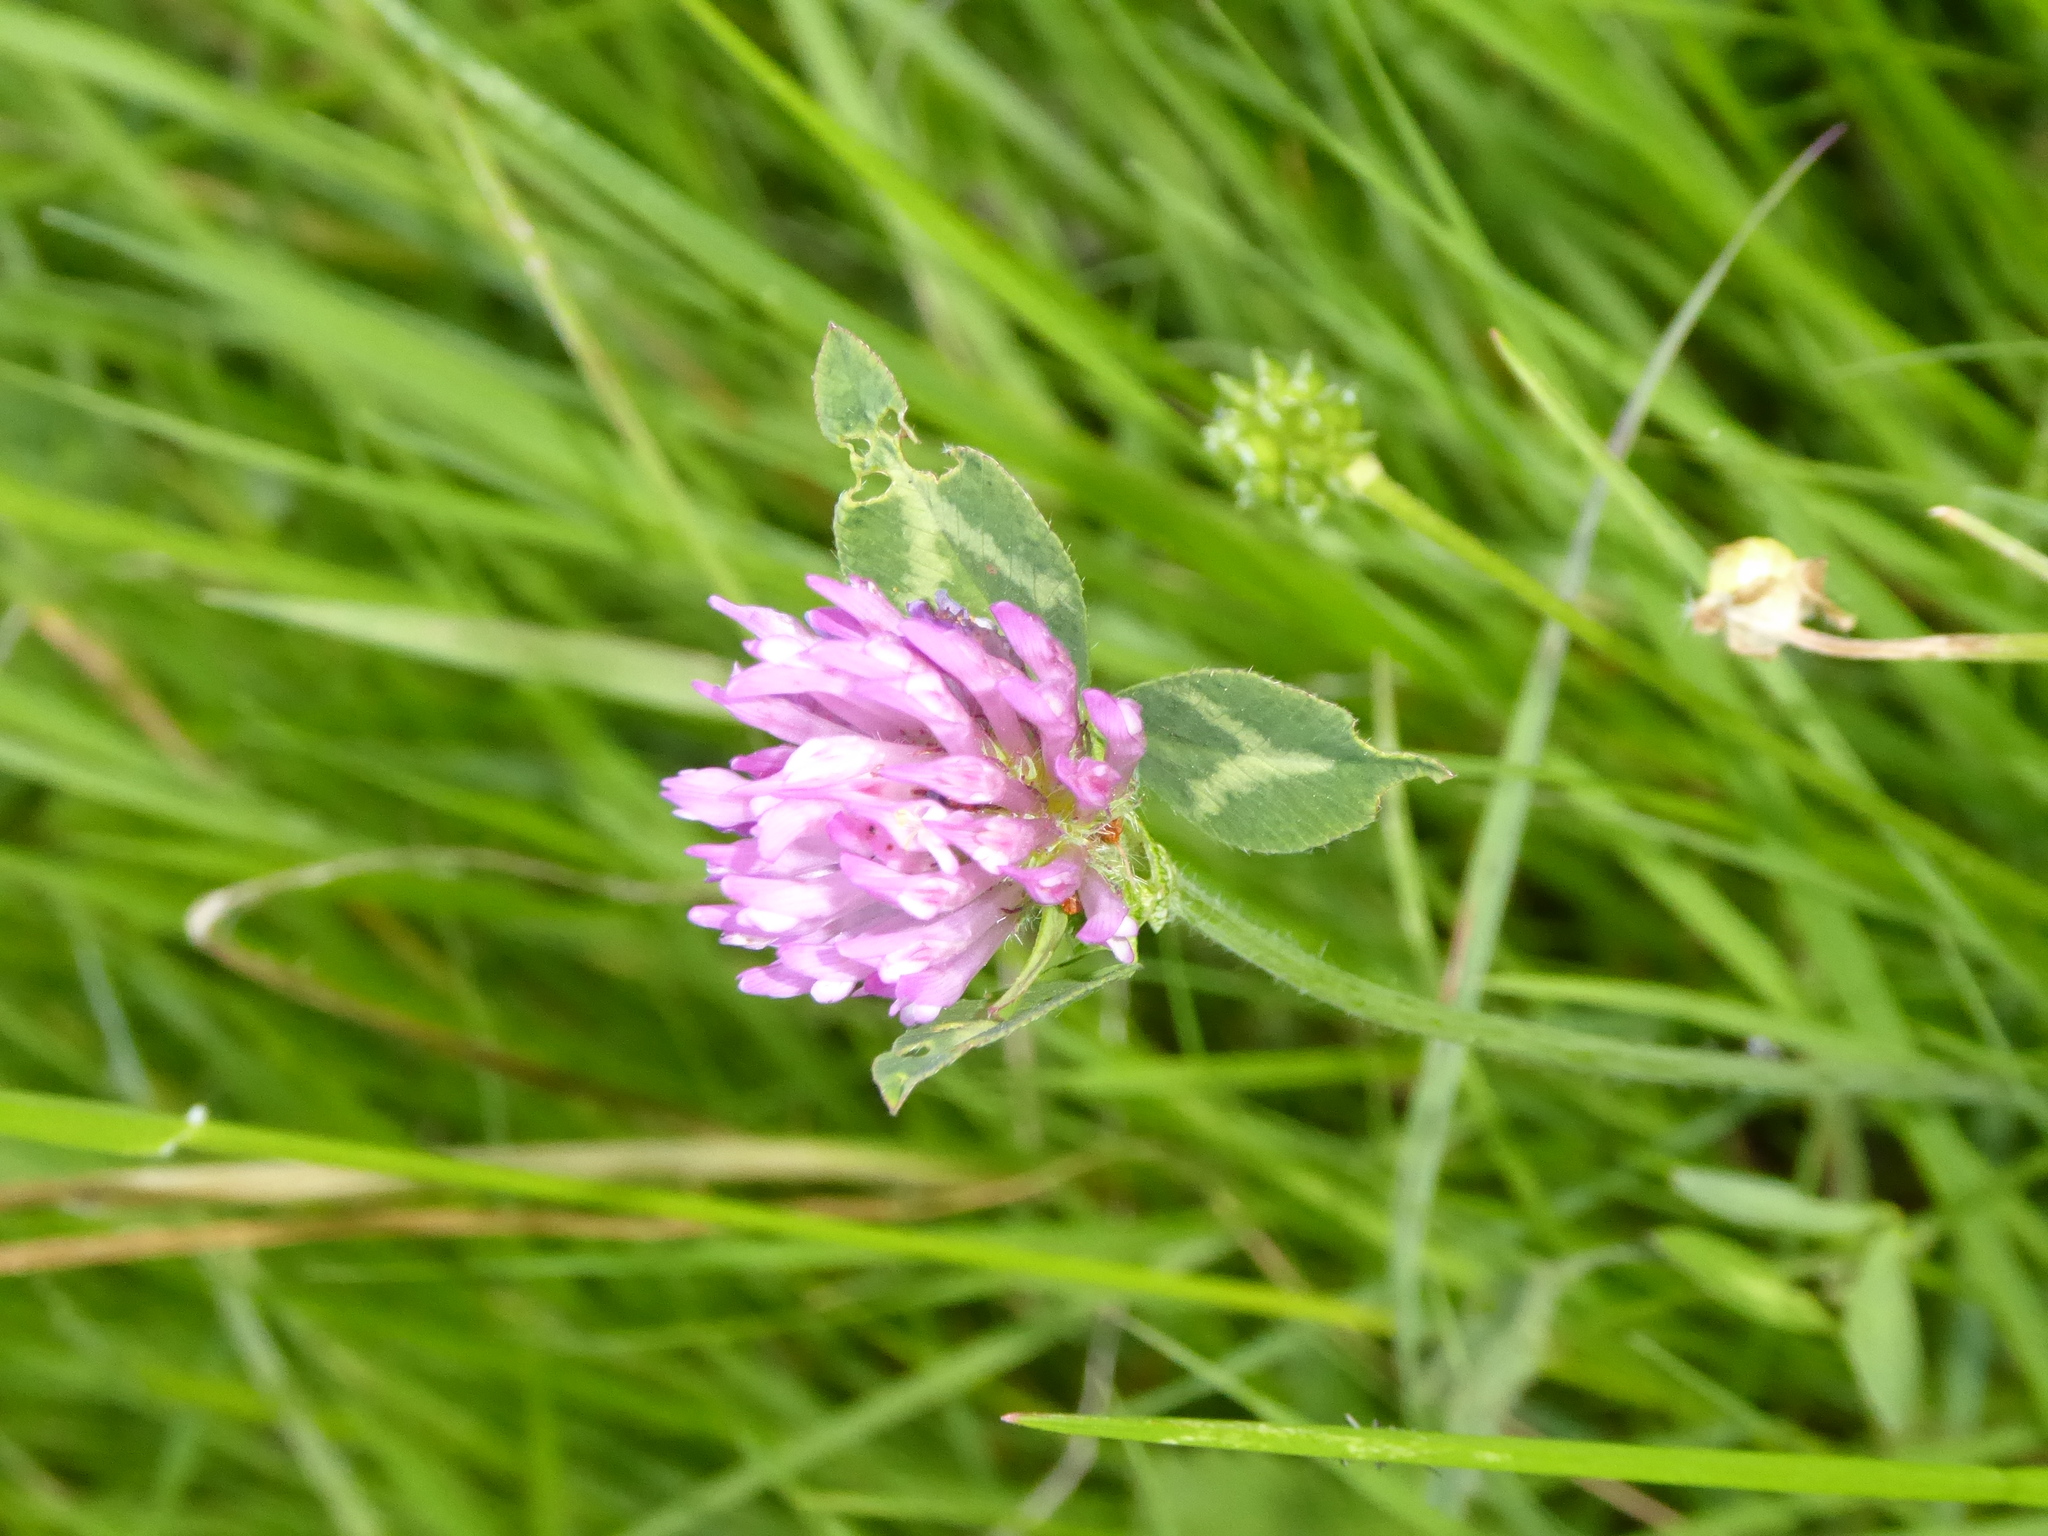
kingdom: Plantae
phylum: Tracheophyta
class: Magnoliopsida
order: Fabales
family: Fabaceae
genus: Trifolium
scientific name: Trifolium pratense
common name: Red clover
